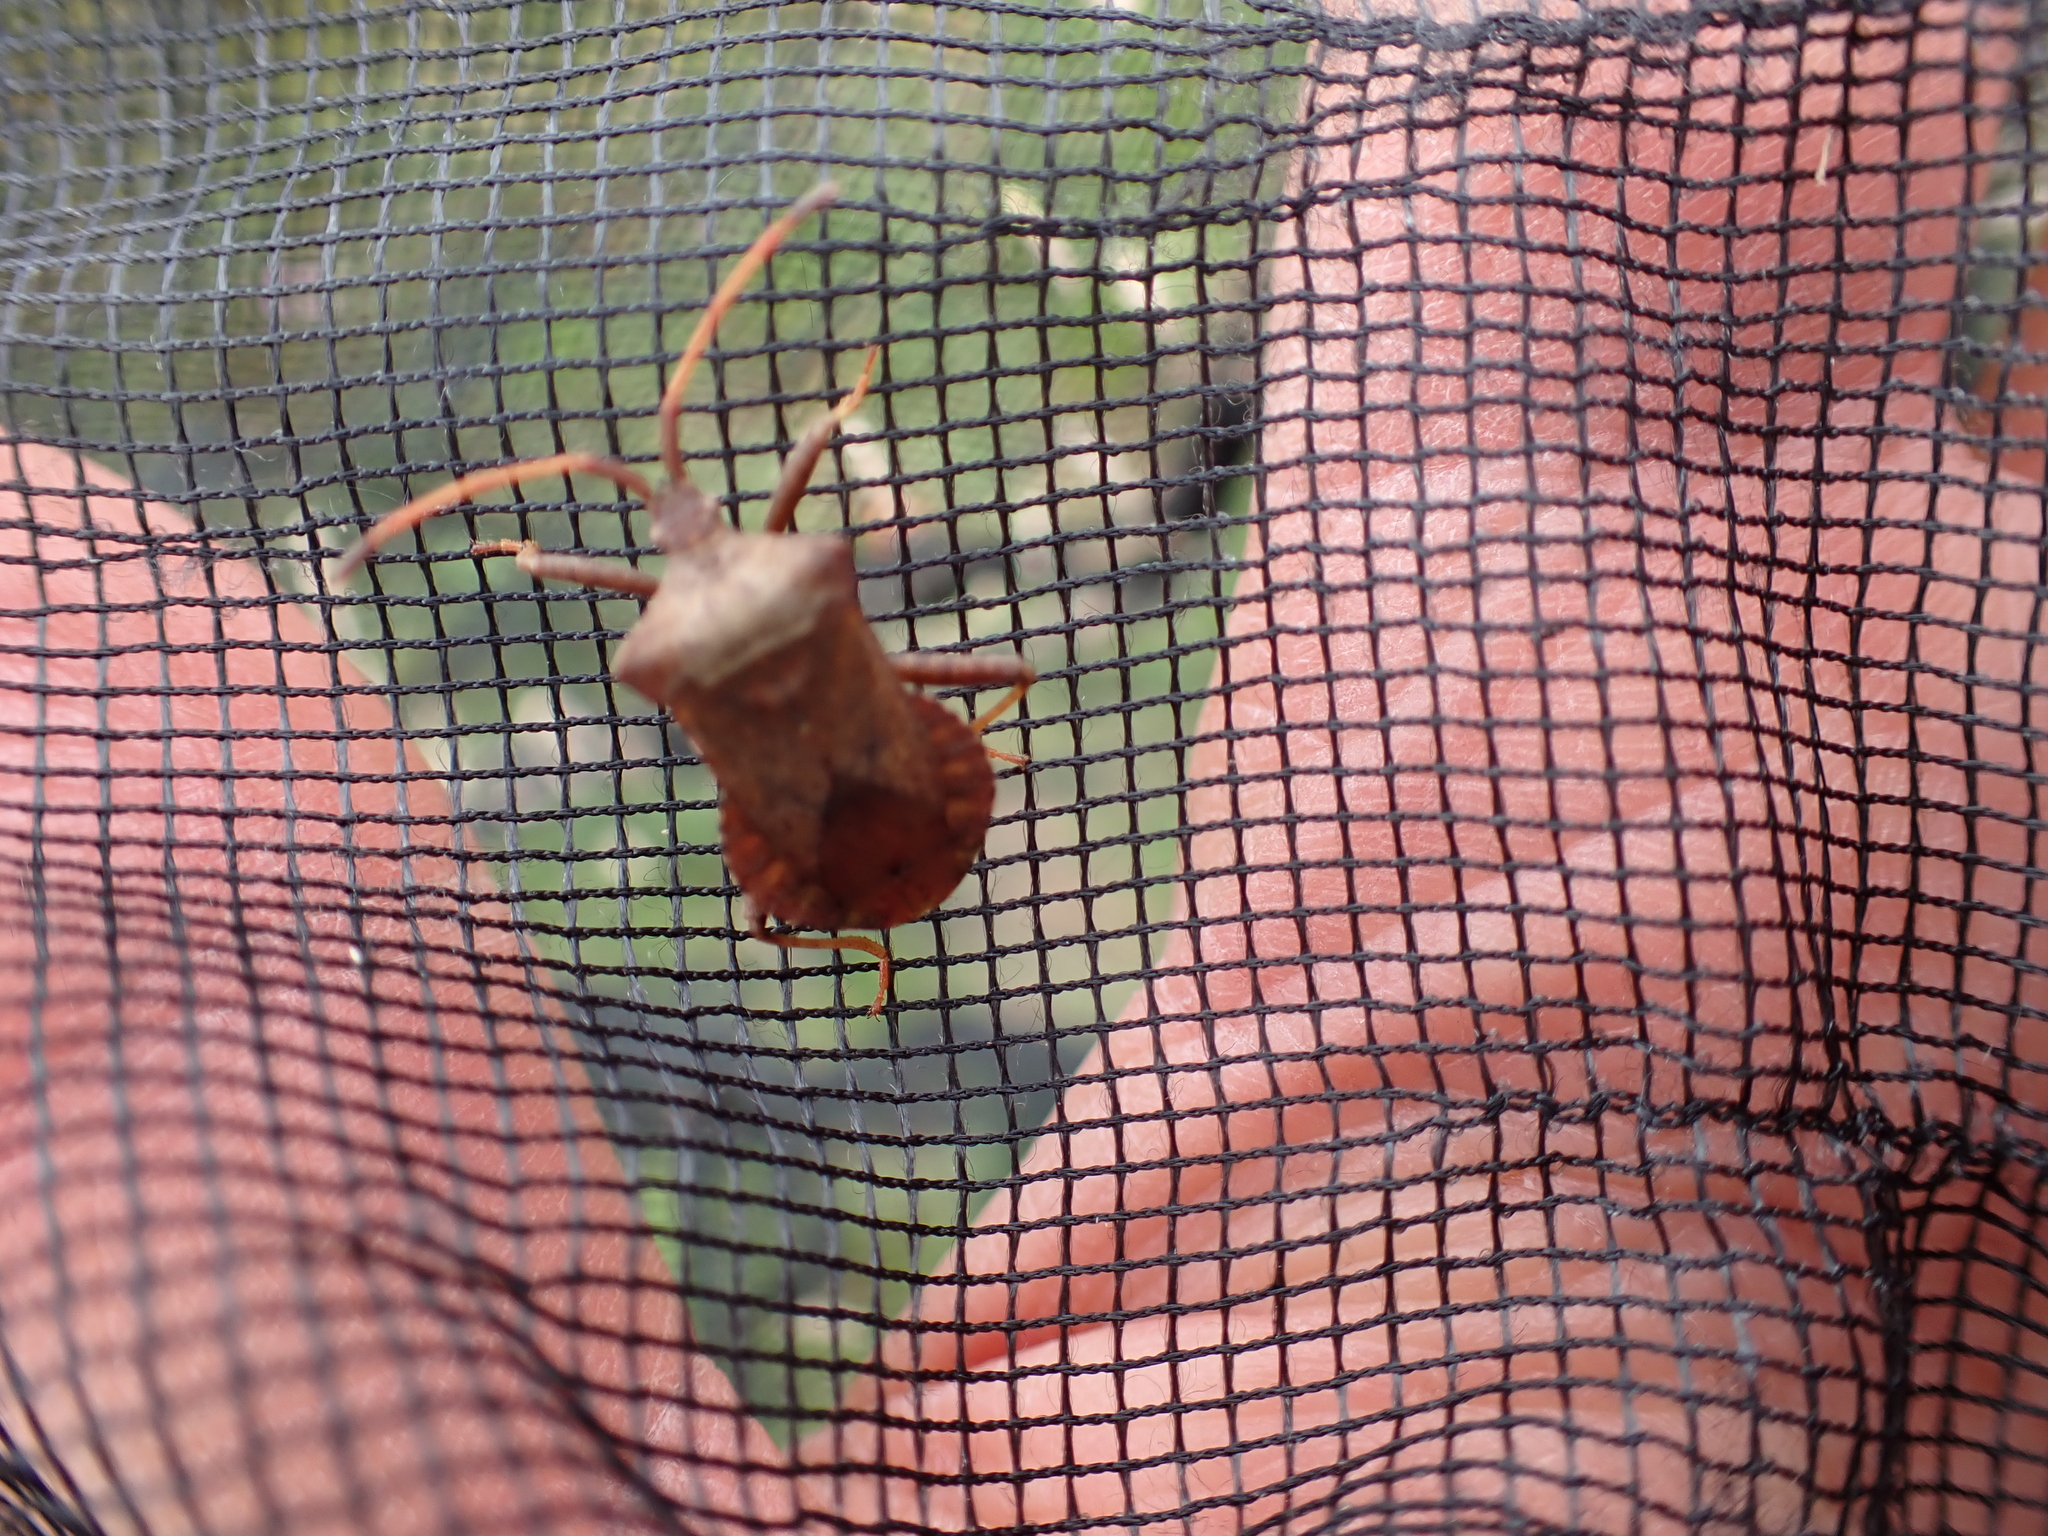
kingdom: Animalia
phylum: Arthropoda
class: Insecta
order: Hemiptera
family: Coreidae
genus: Coreus
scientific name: Coreus marginatus
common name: Dock bug
